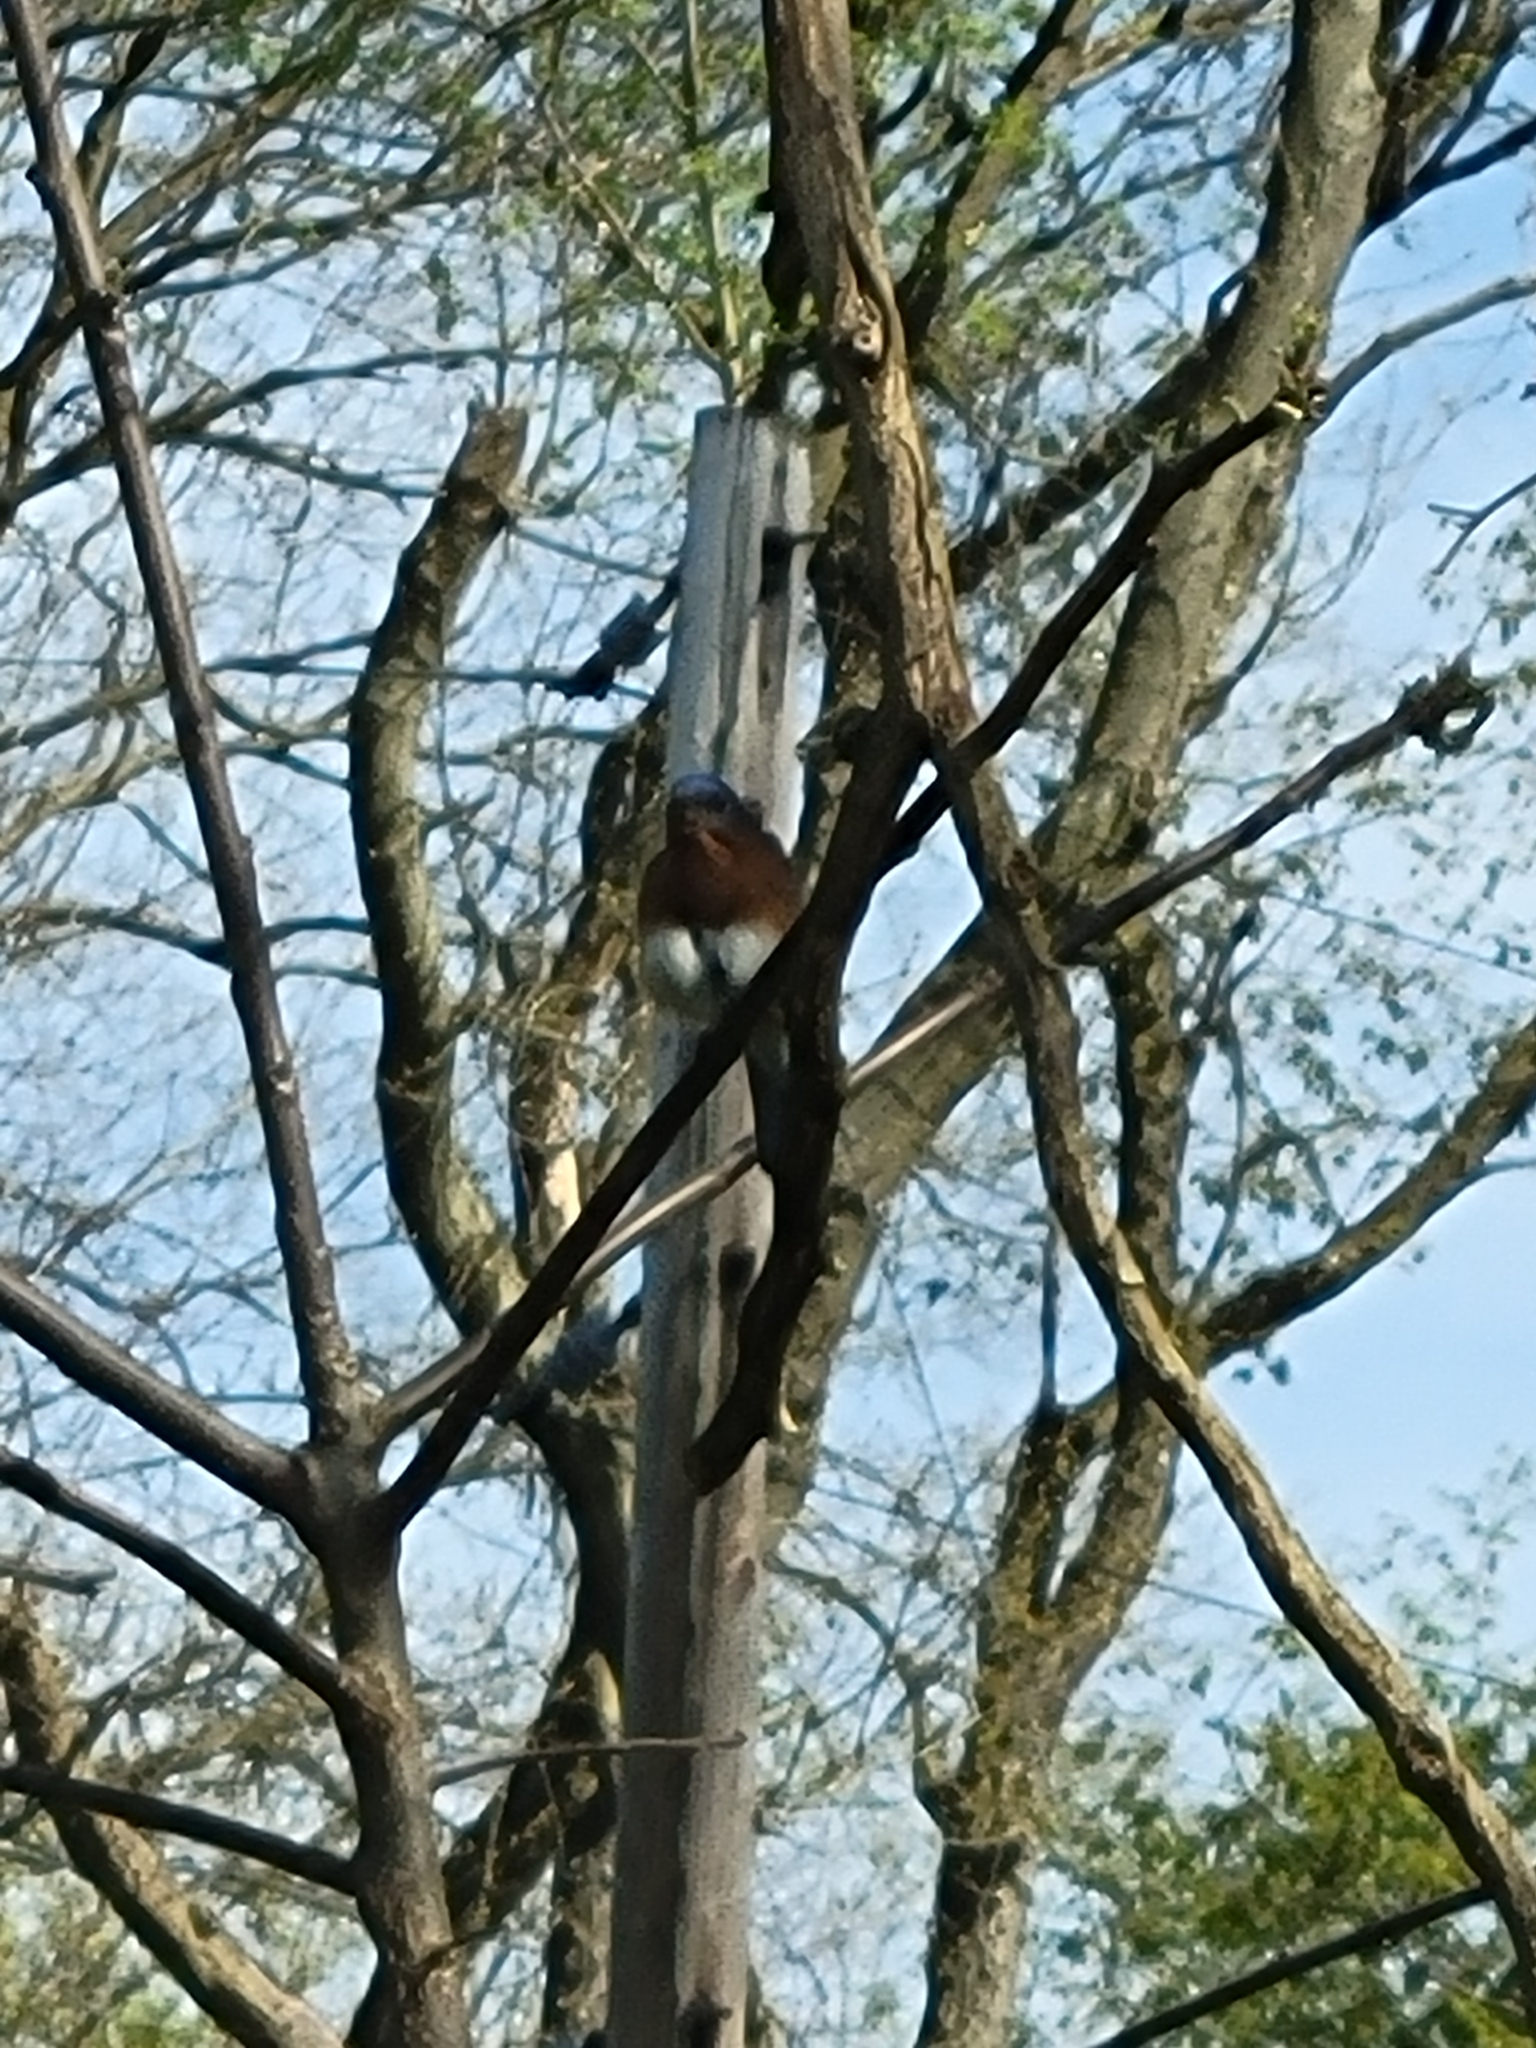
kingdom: Animalia
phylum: Chordata
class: Aves
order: Passeriformes
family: Turdidae
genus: Sialia
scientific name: Sialia sialis
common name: Eastern bluebird
